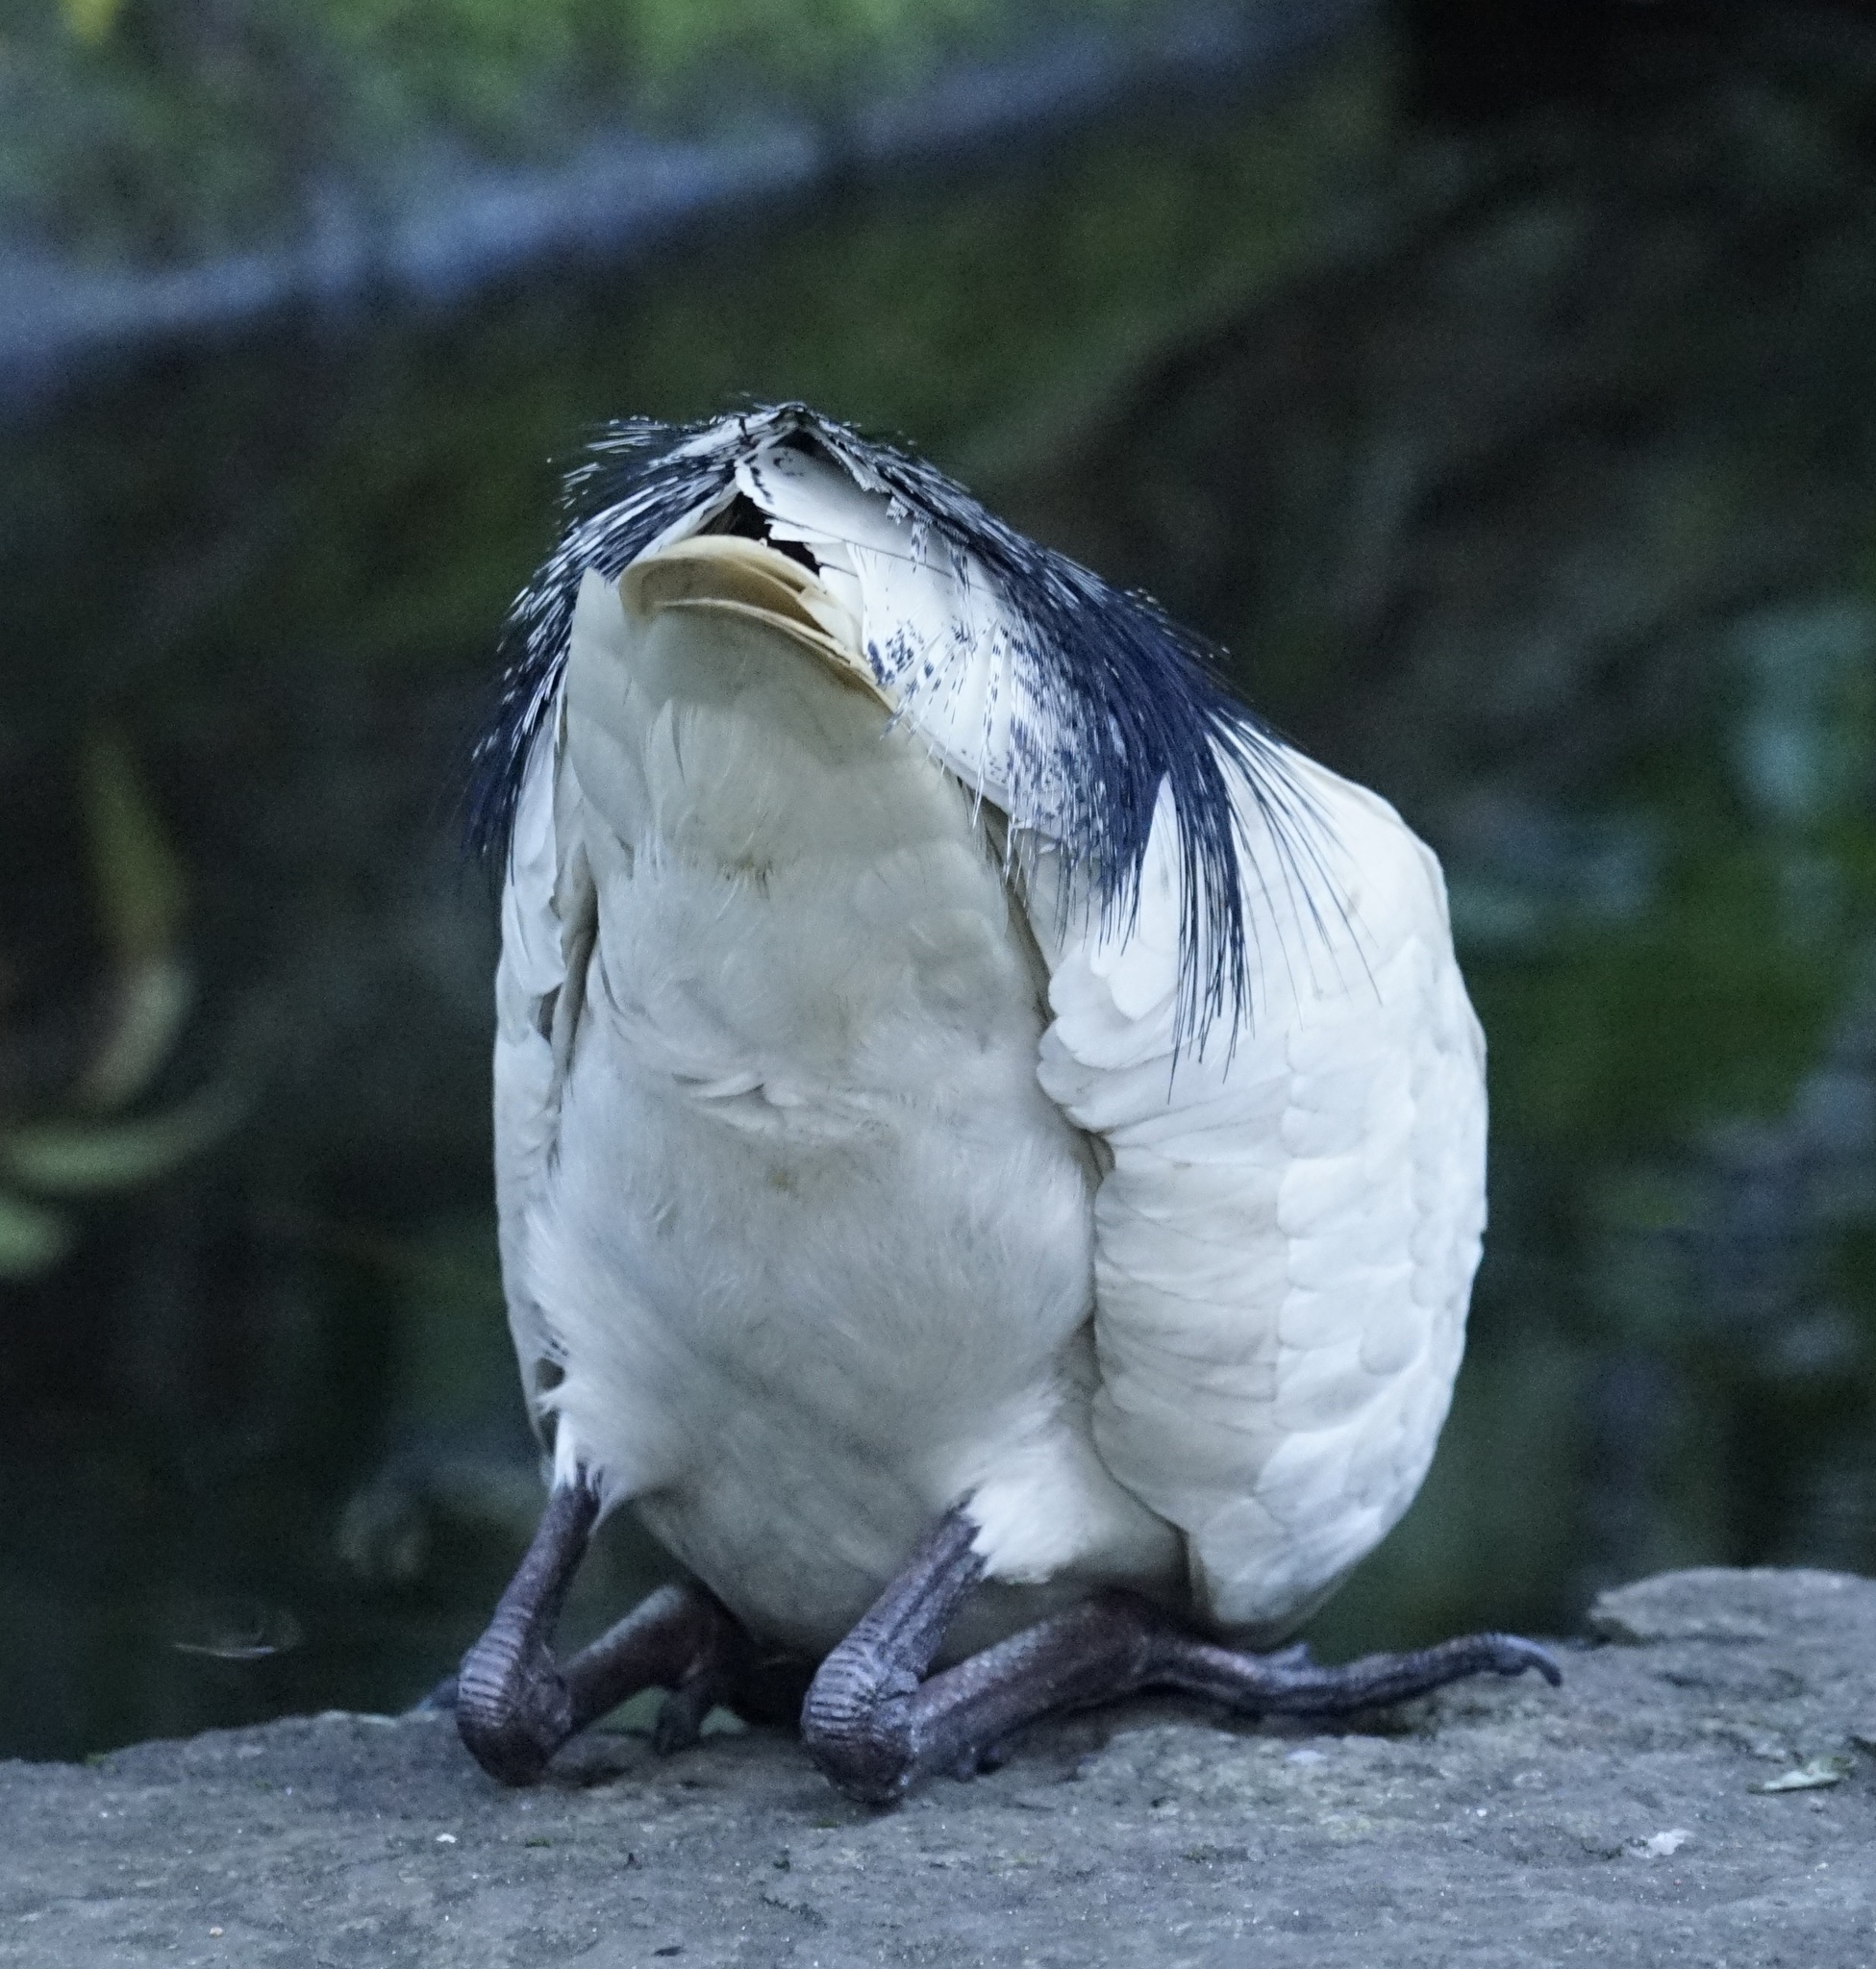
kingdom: Animalia
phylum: Chordata
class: Aves
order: Pelecaniformes
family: Threskiornithidae
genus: Threskiornis
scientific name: Threskiornis molucca
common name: Australian white ibis
